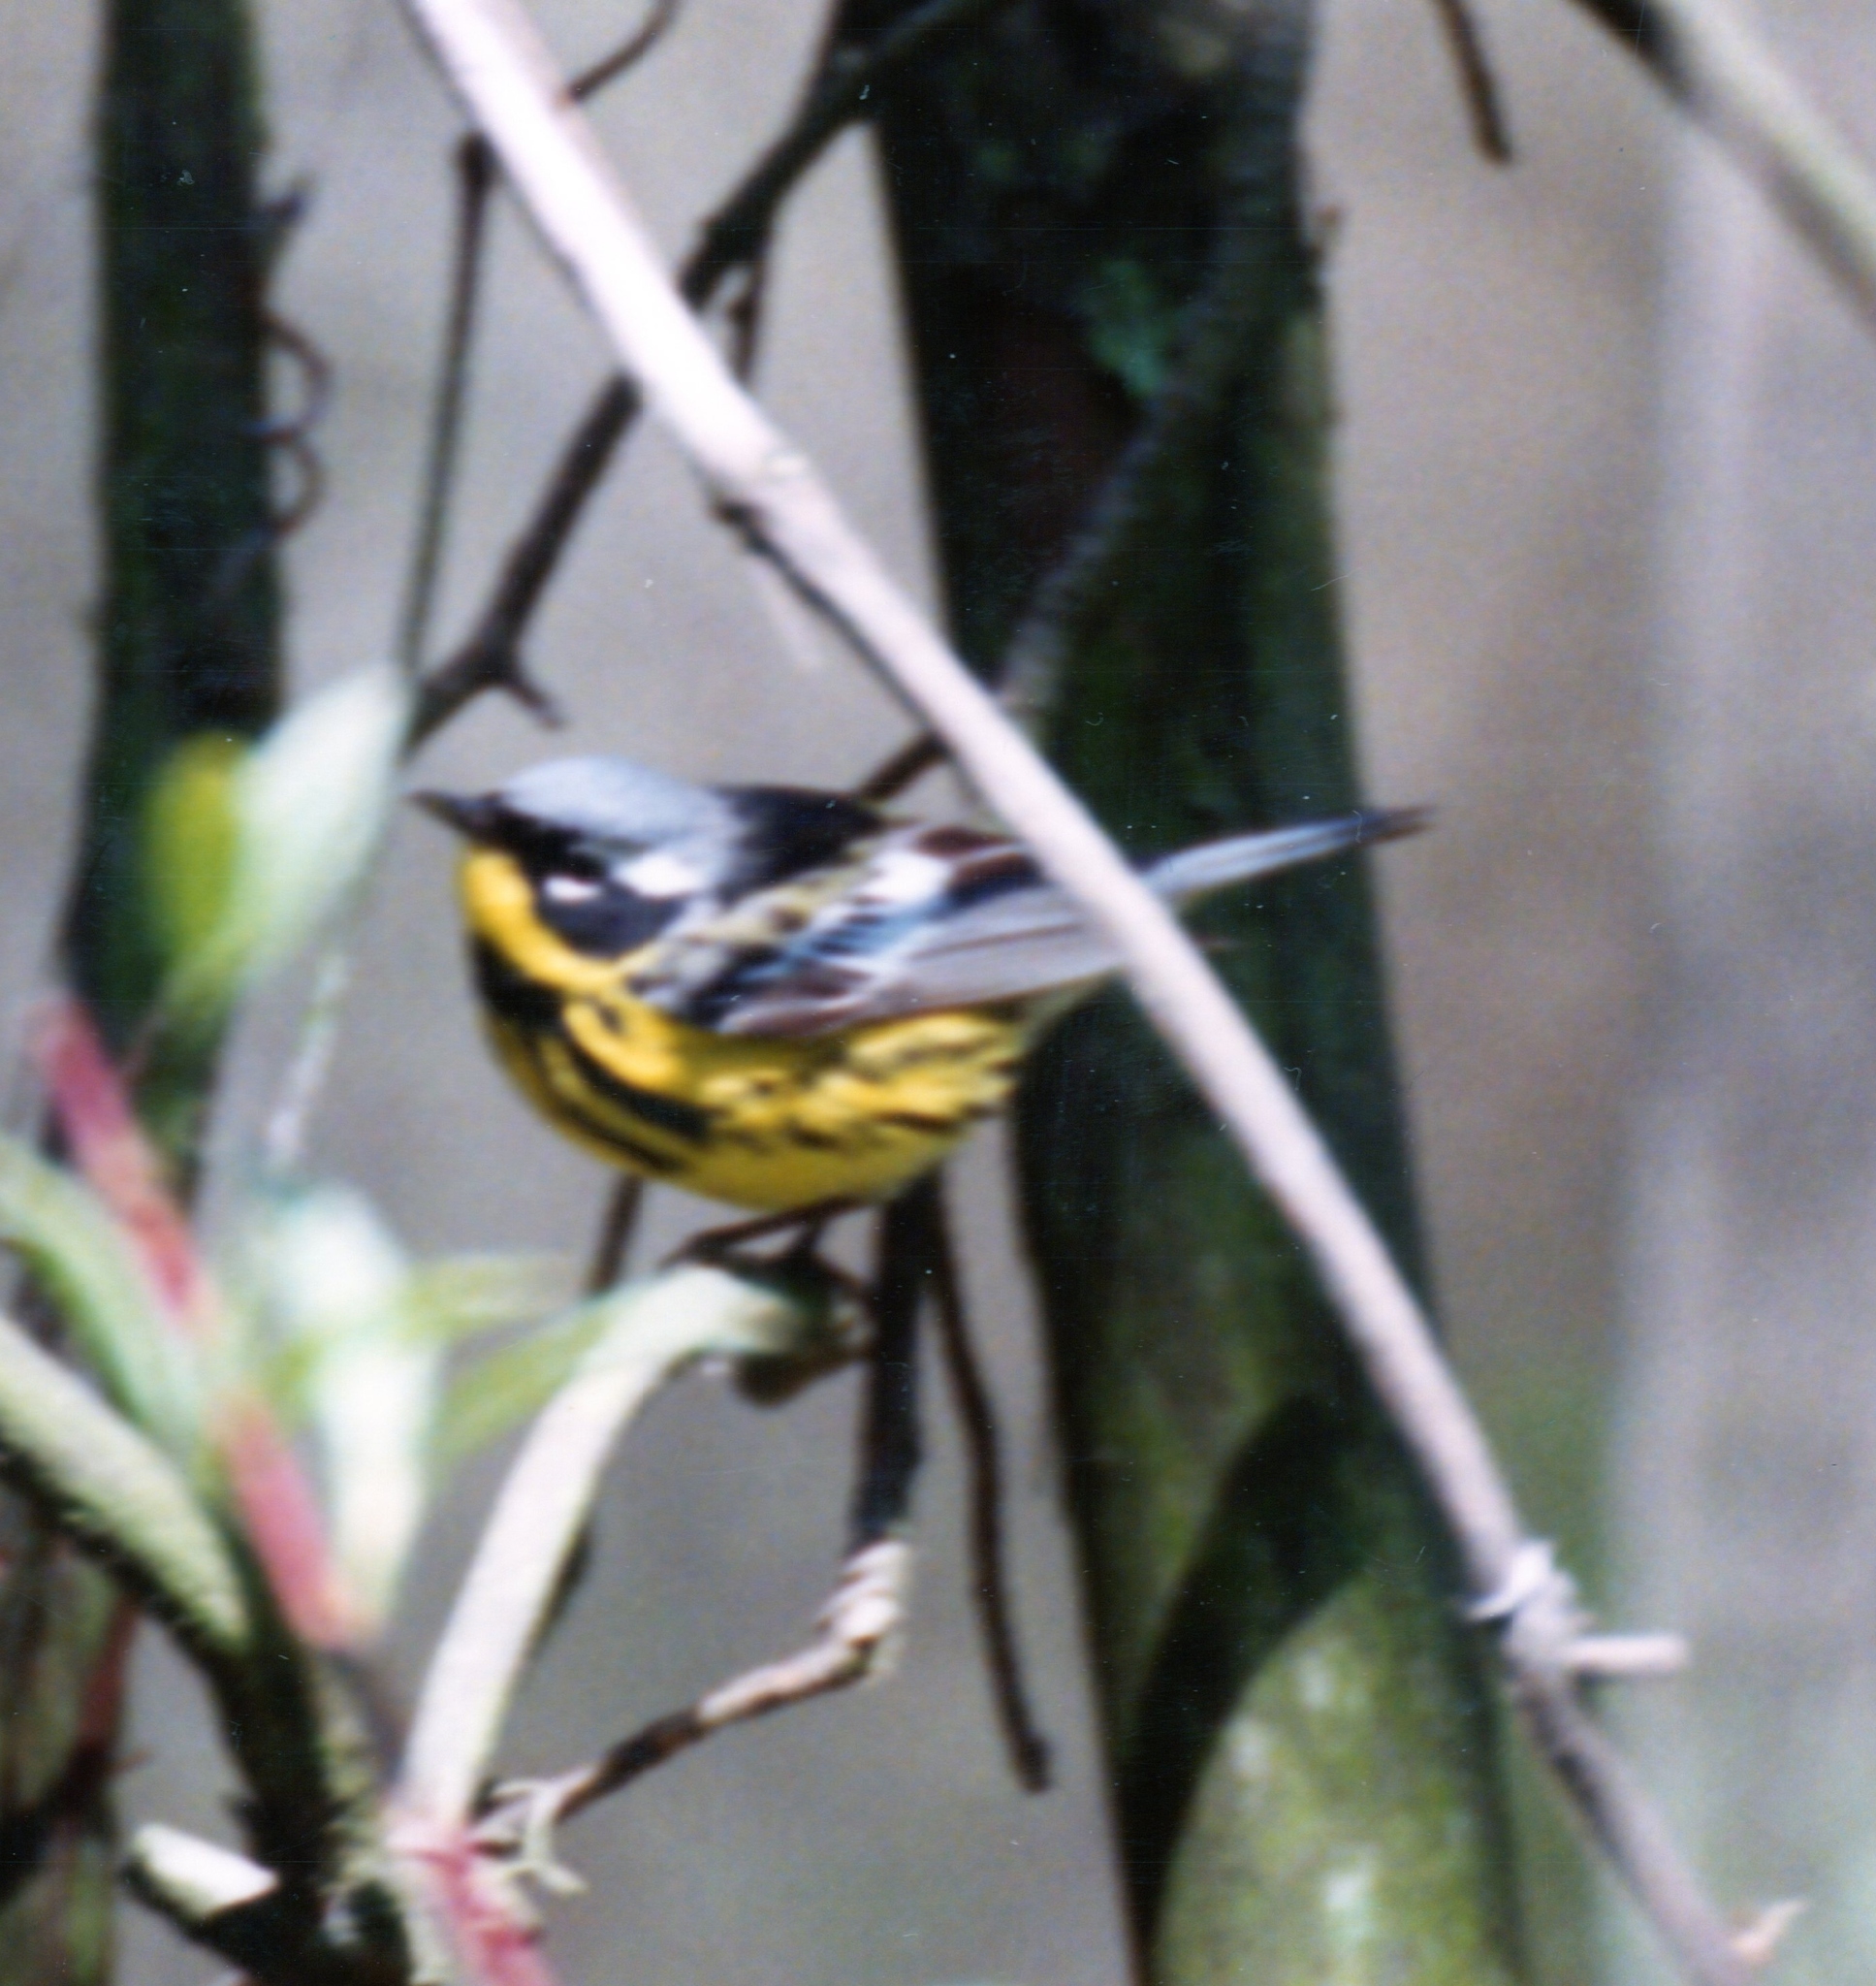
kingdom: Animalia
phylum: Chordata
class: Aves
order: Passeriformes
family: Parulidae
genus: Setophaga
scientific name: Setophaga magnolia
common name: Magnolia warbler
